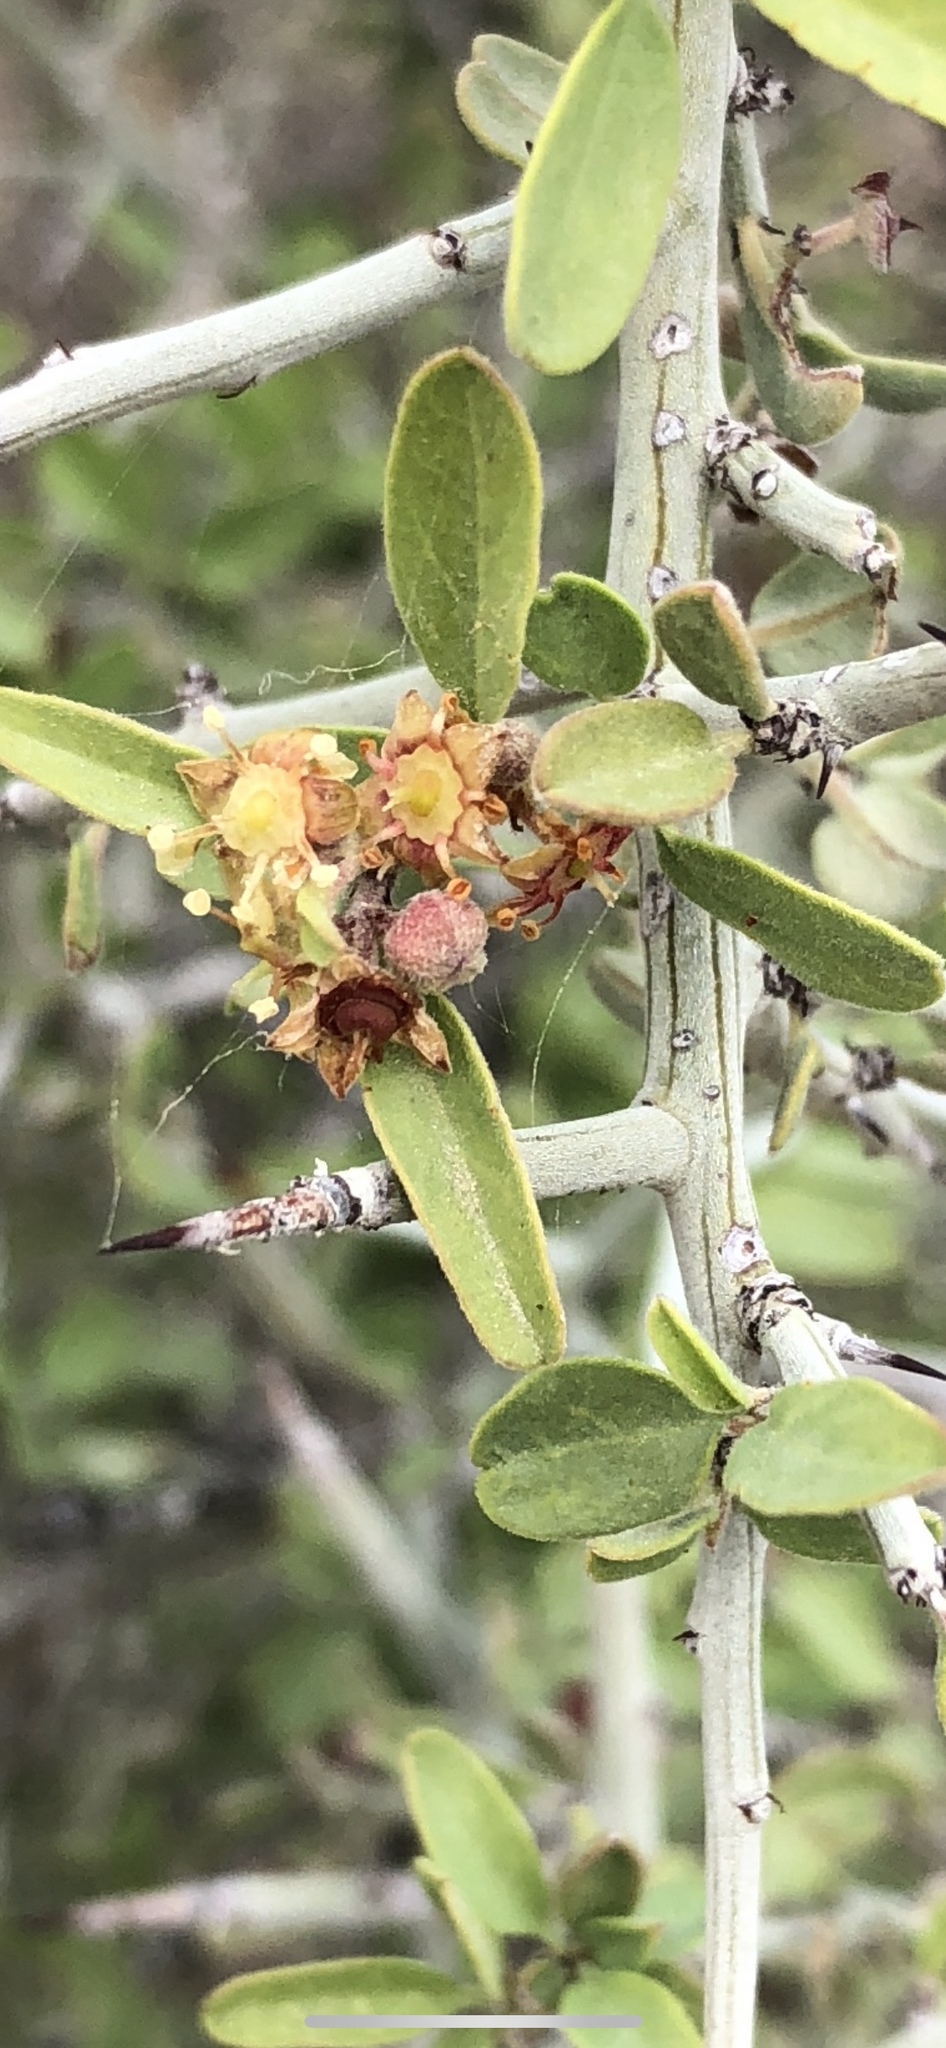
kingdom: Plantae
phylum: Tracheophyta
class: Magnoliopsida
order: Rosales
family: Rhamnaceae
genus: Sarcomphalus
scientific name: Sarcomphalus obtusifolius
